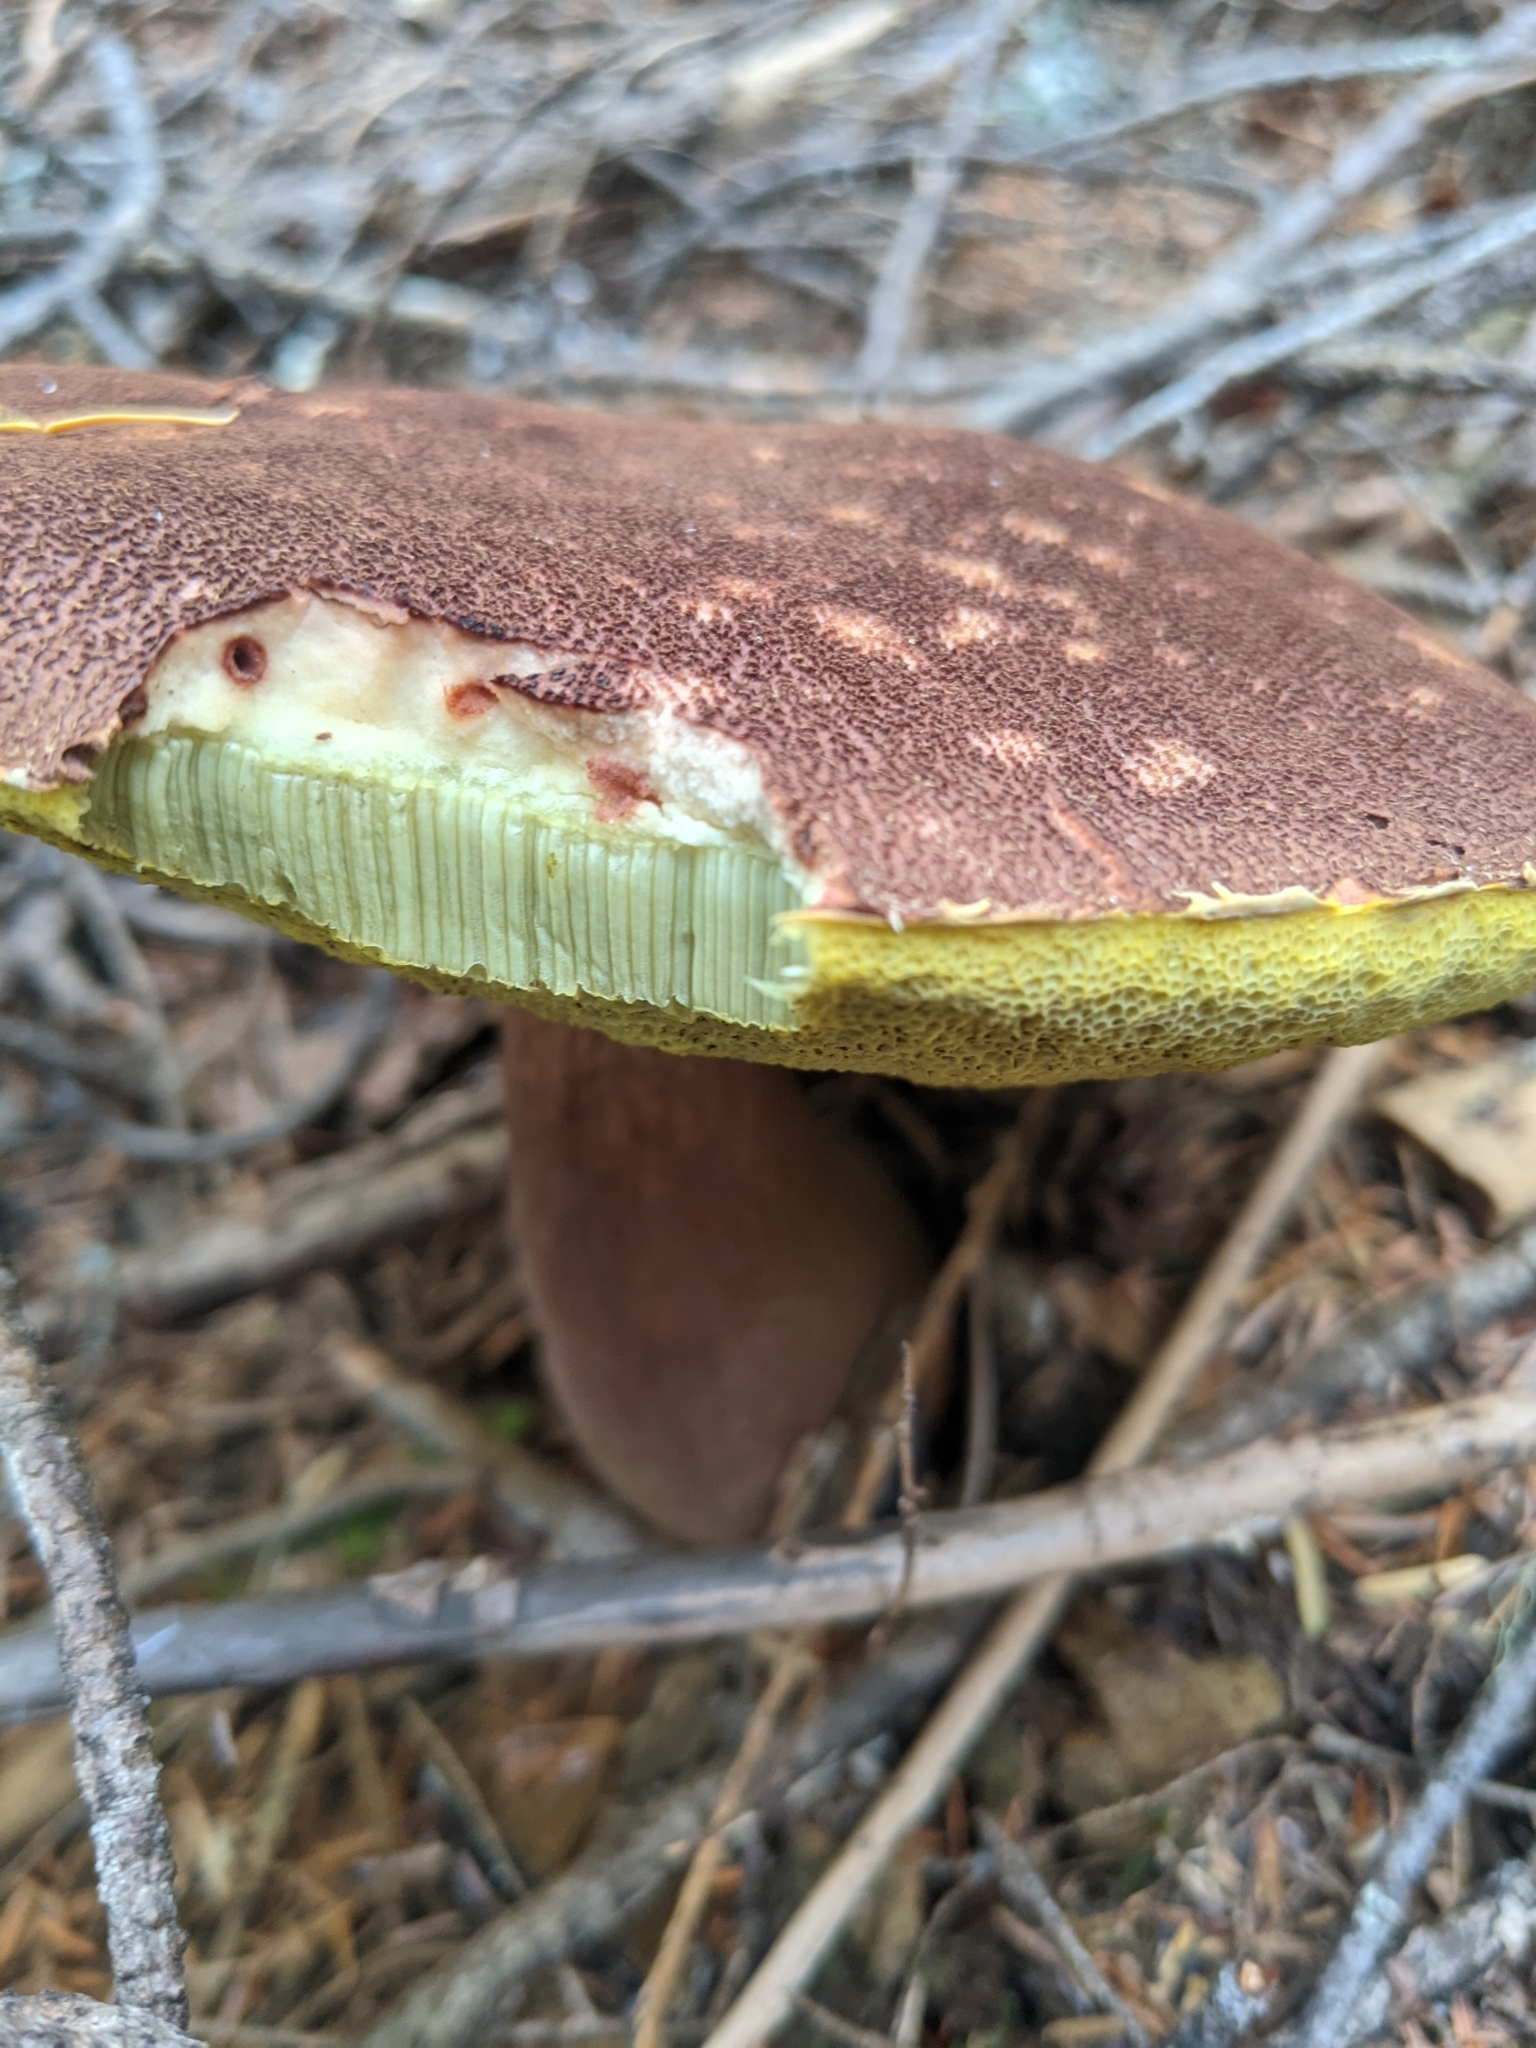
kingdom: Fungi
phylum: Basidiomycota
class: Agaricomycetes
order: Boletales
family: Boletaceae
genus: Aureoboletus
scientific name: Aureoboletus mirabilis
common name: Admirable bolete
